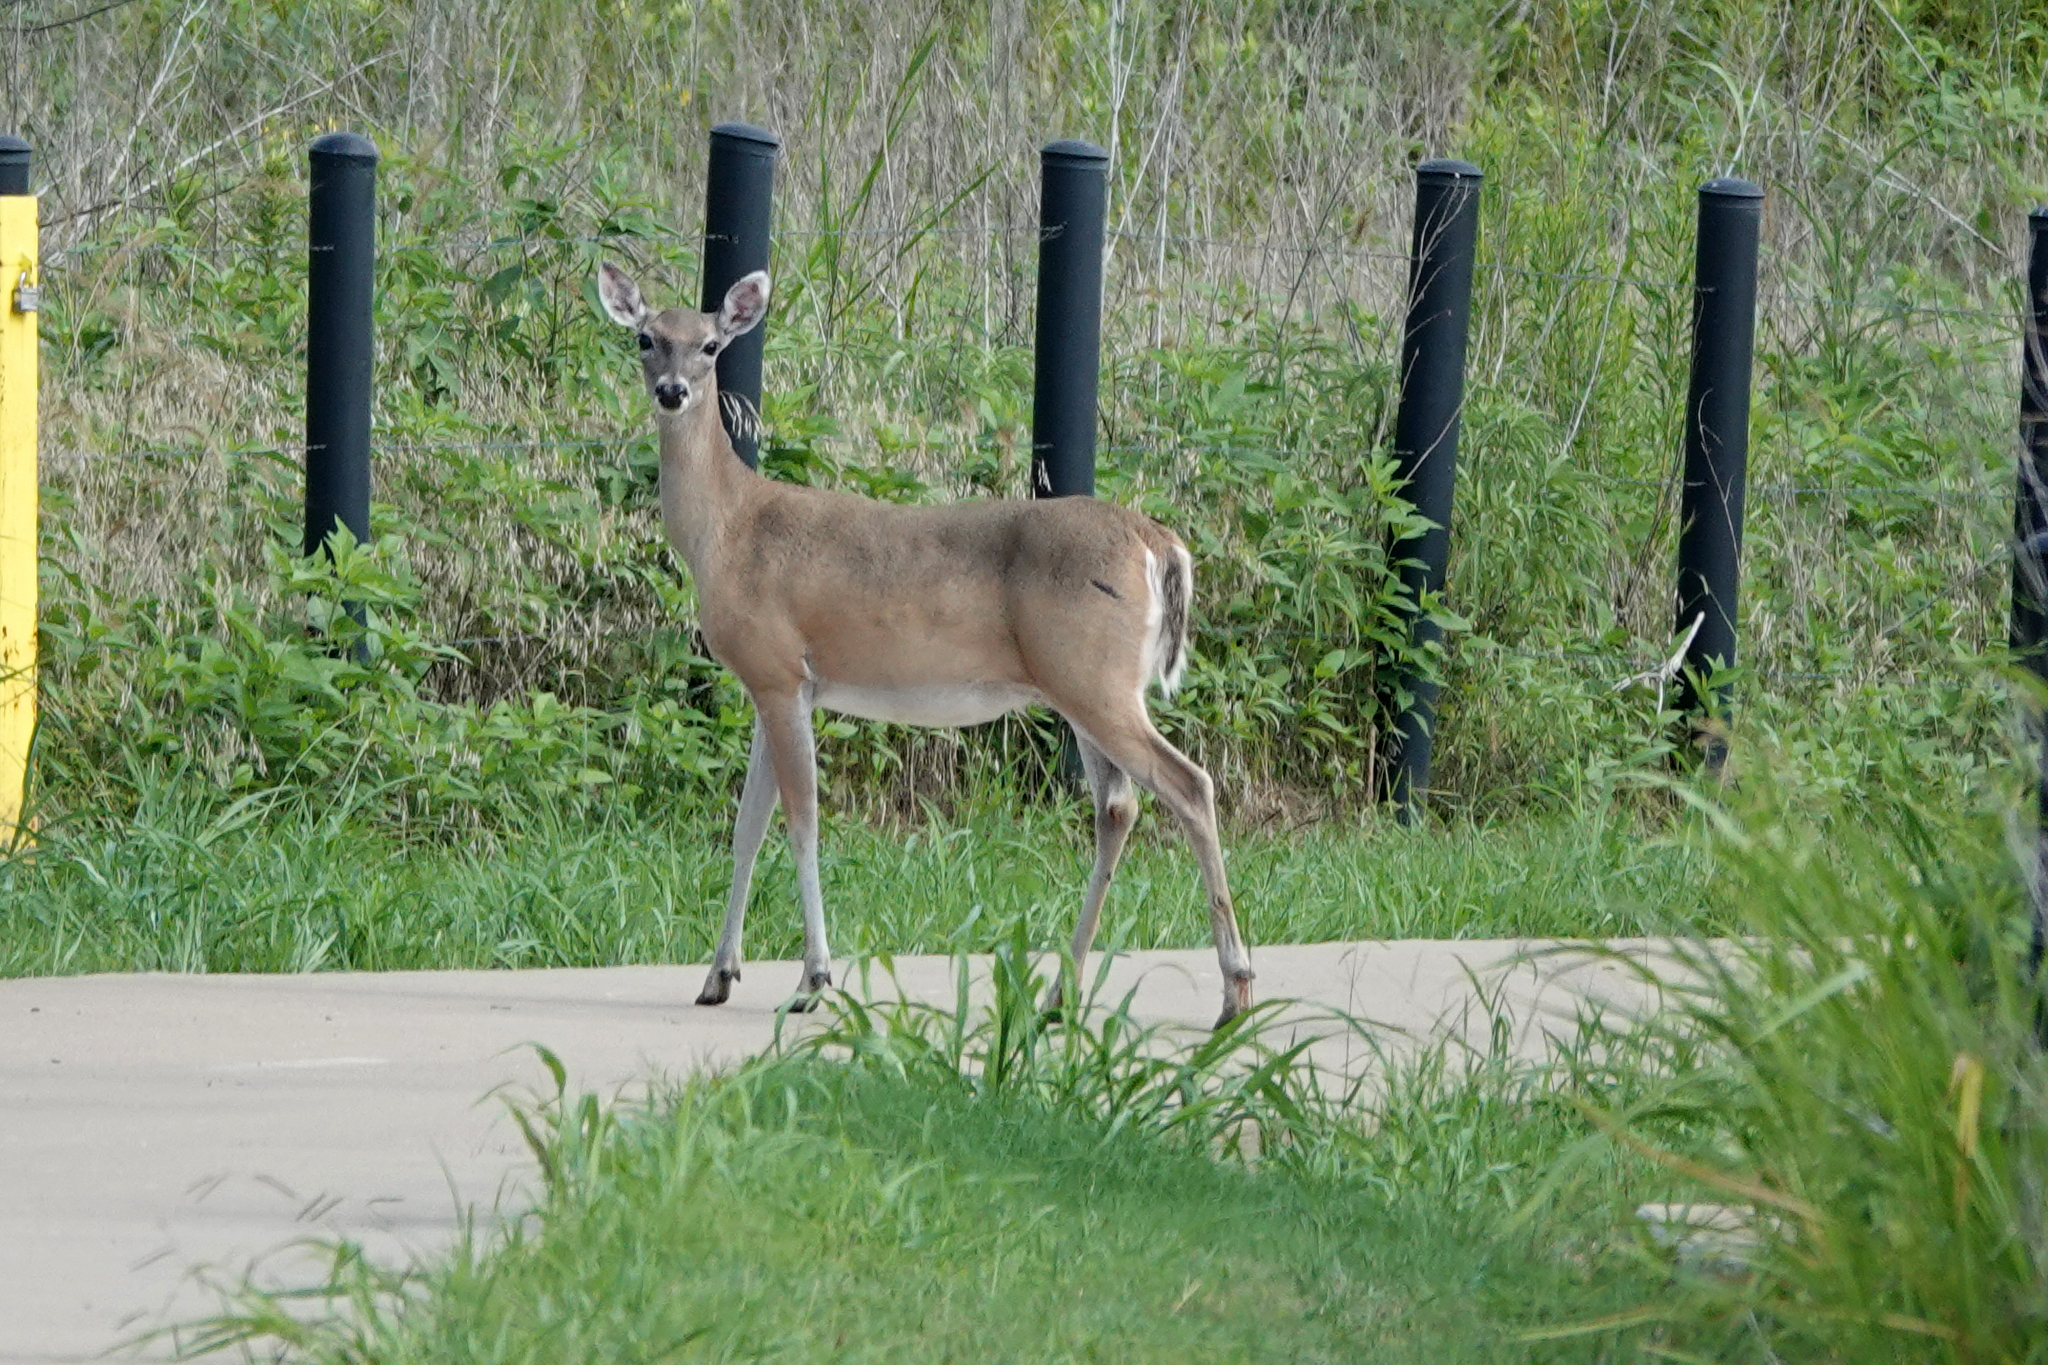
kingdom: Animalia
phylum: Chordata
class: Mammalia
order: Artiodactyla
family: Cervidae
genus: Odocoileus
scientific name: Odocoileus virginianus
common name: White-tailed deer
